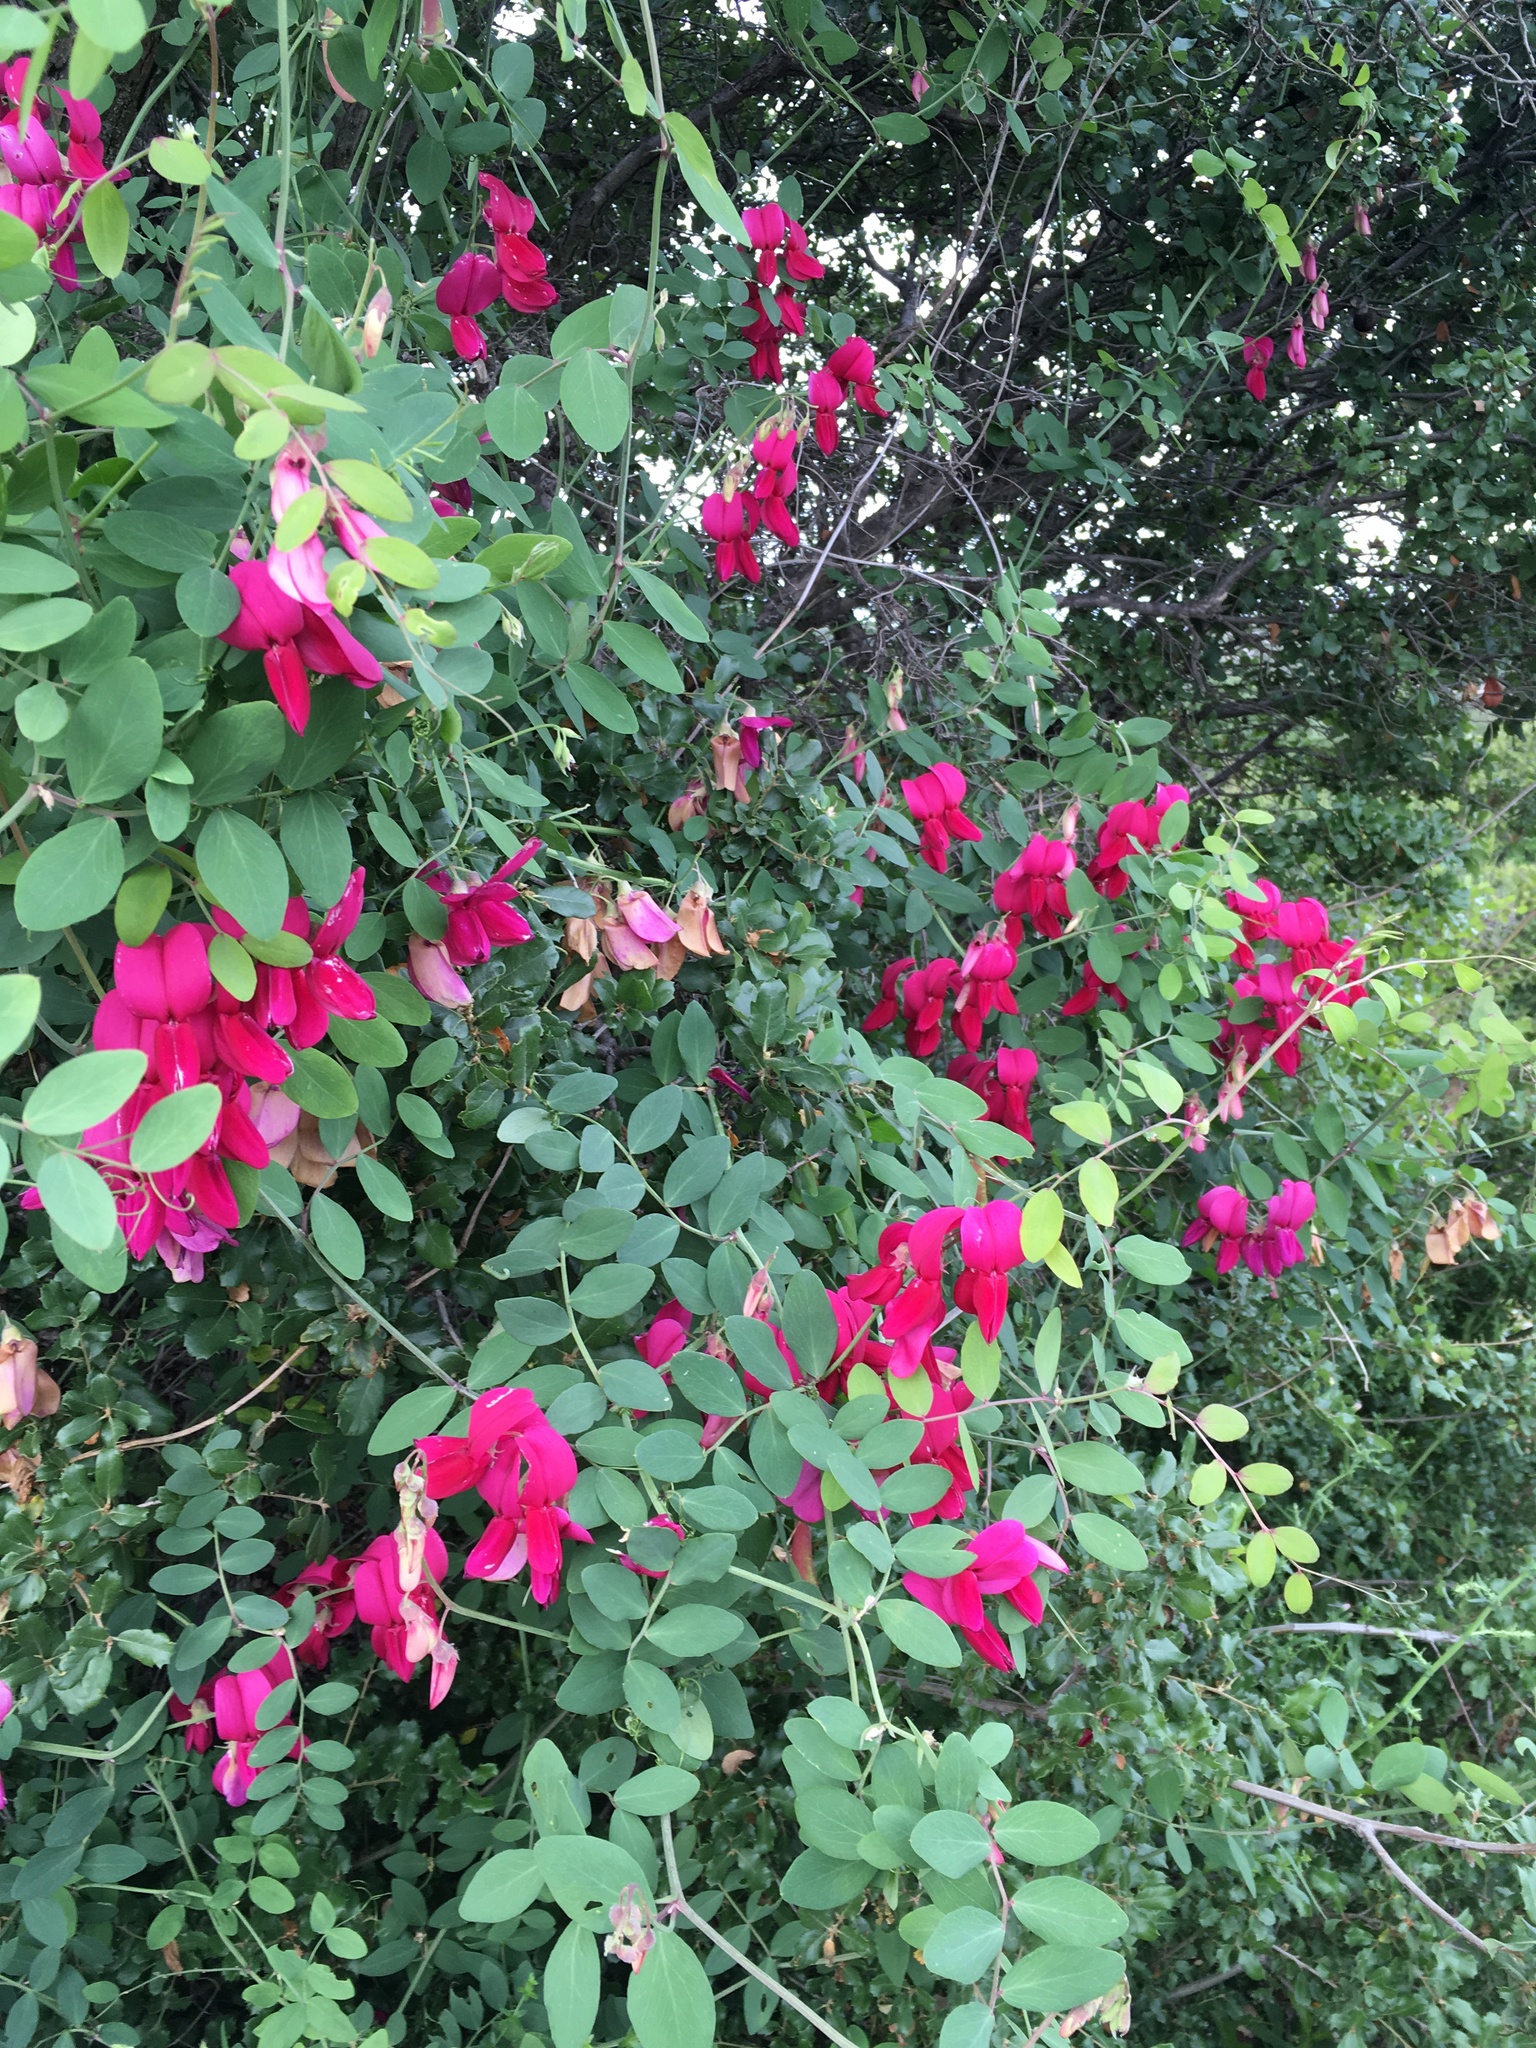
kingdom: Plantae
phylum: Tracheophyta
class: Magnoliopsida
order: Fabales
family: Fabaceae
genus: Lathyrus
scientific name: Lathyrus splendens
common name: Campo-pea
